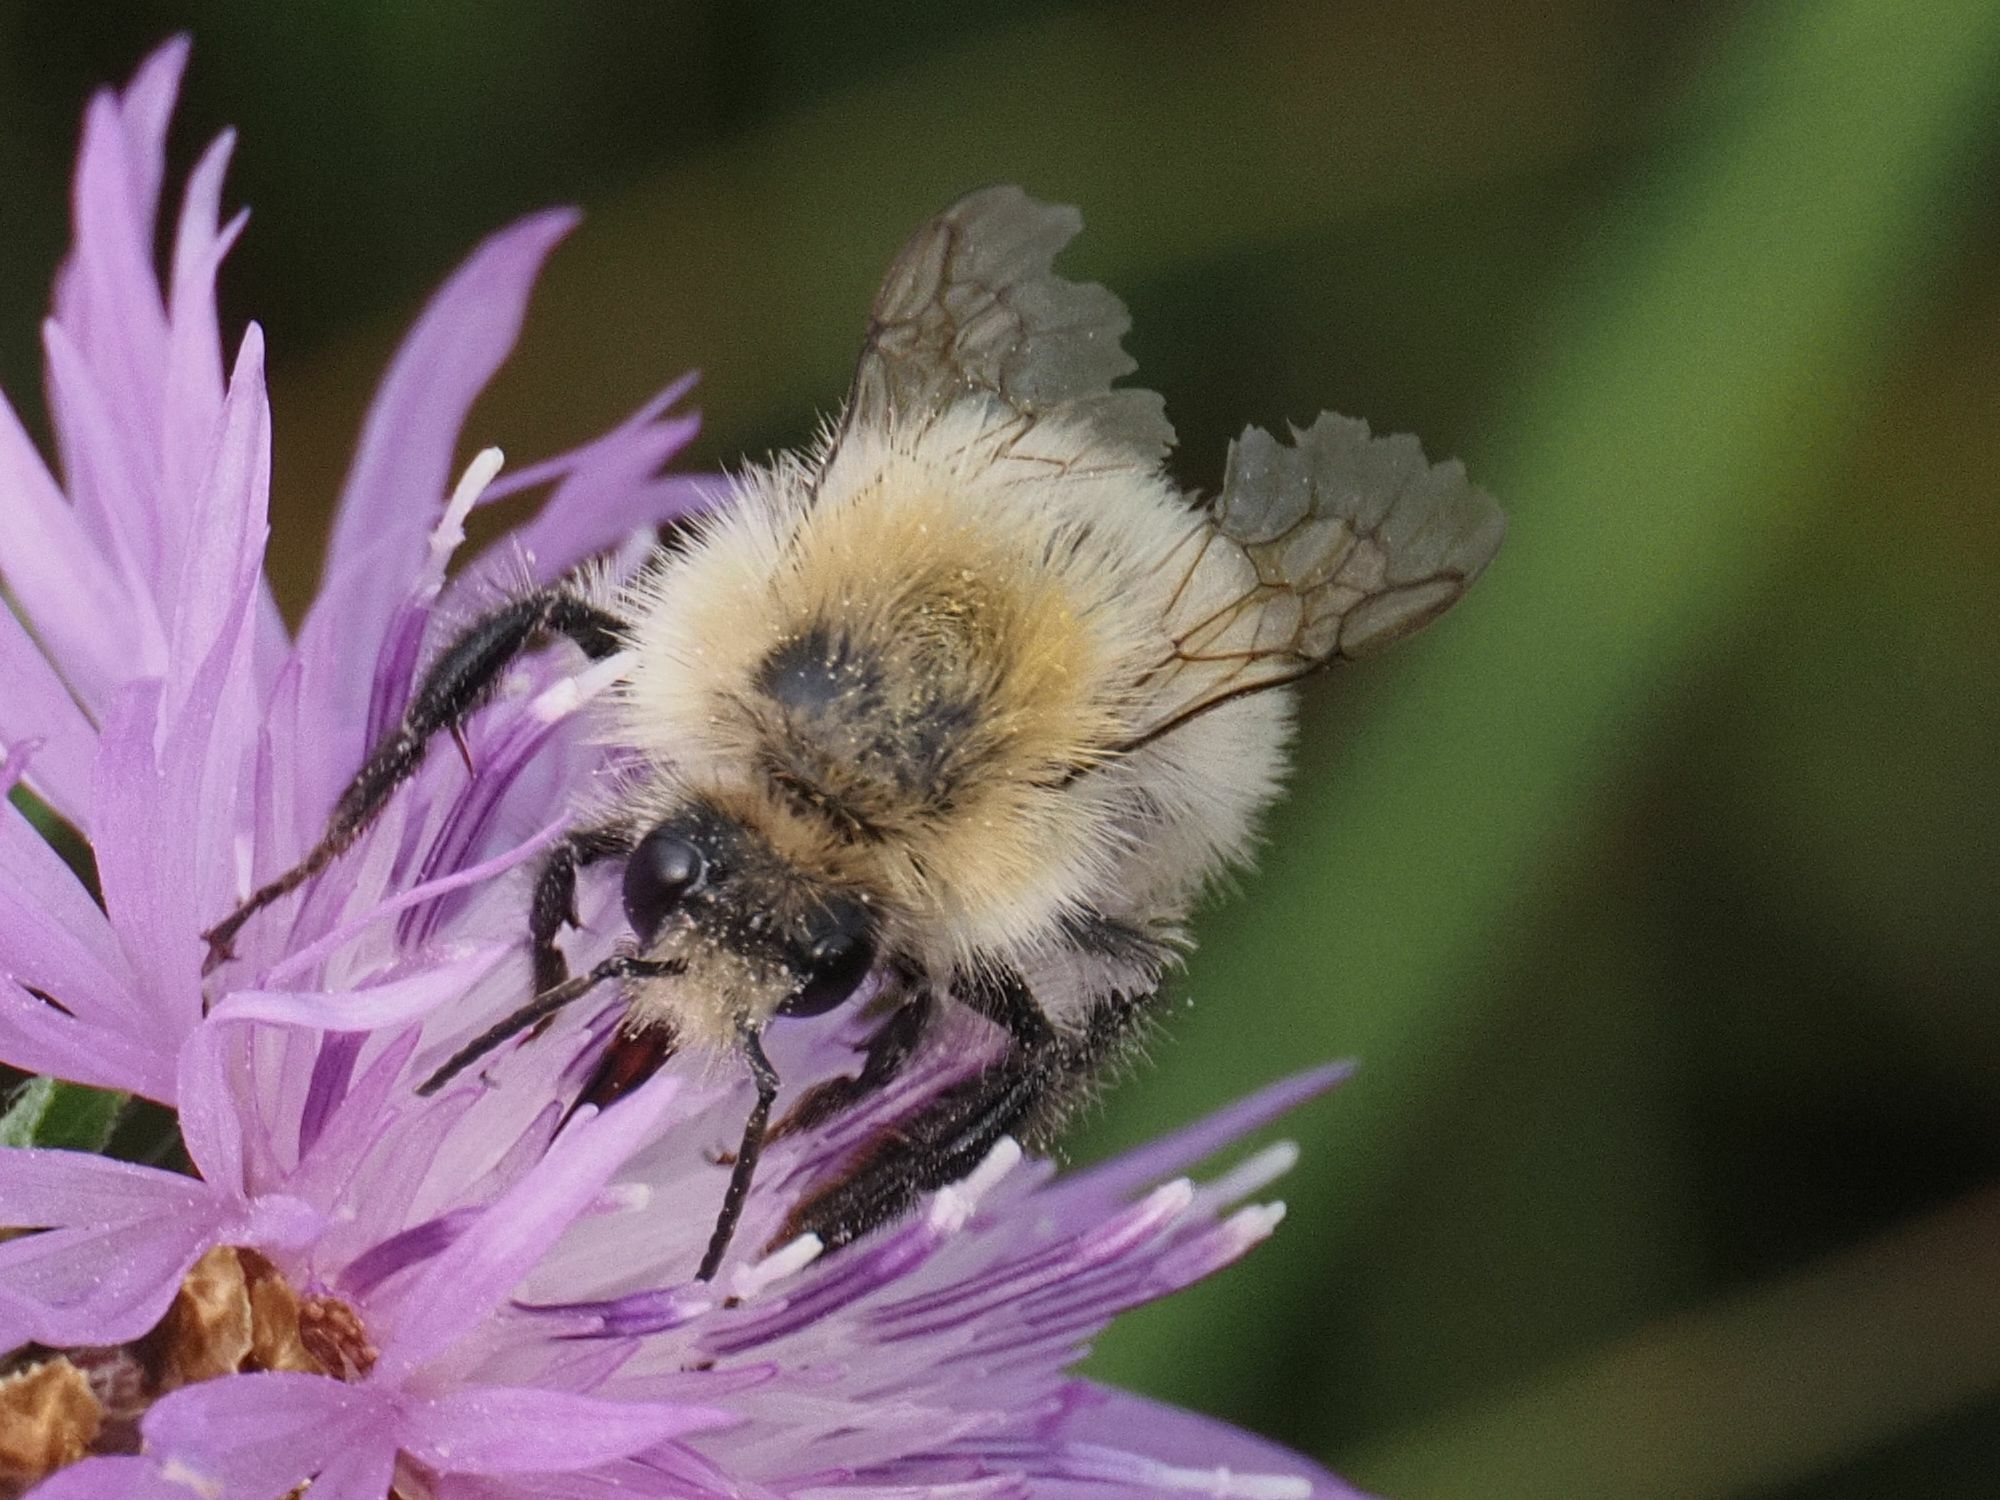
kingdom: Animalia
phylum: Arthropoda
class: Insecta
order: Hymenoptera
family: Apidae
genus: Bombus
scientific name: Bombus pascuorum
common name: Common carder bee
